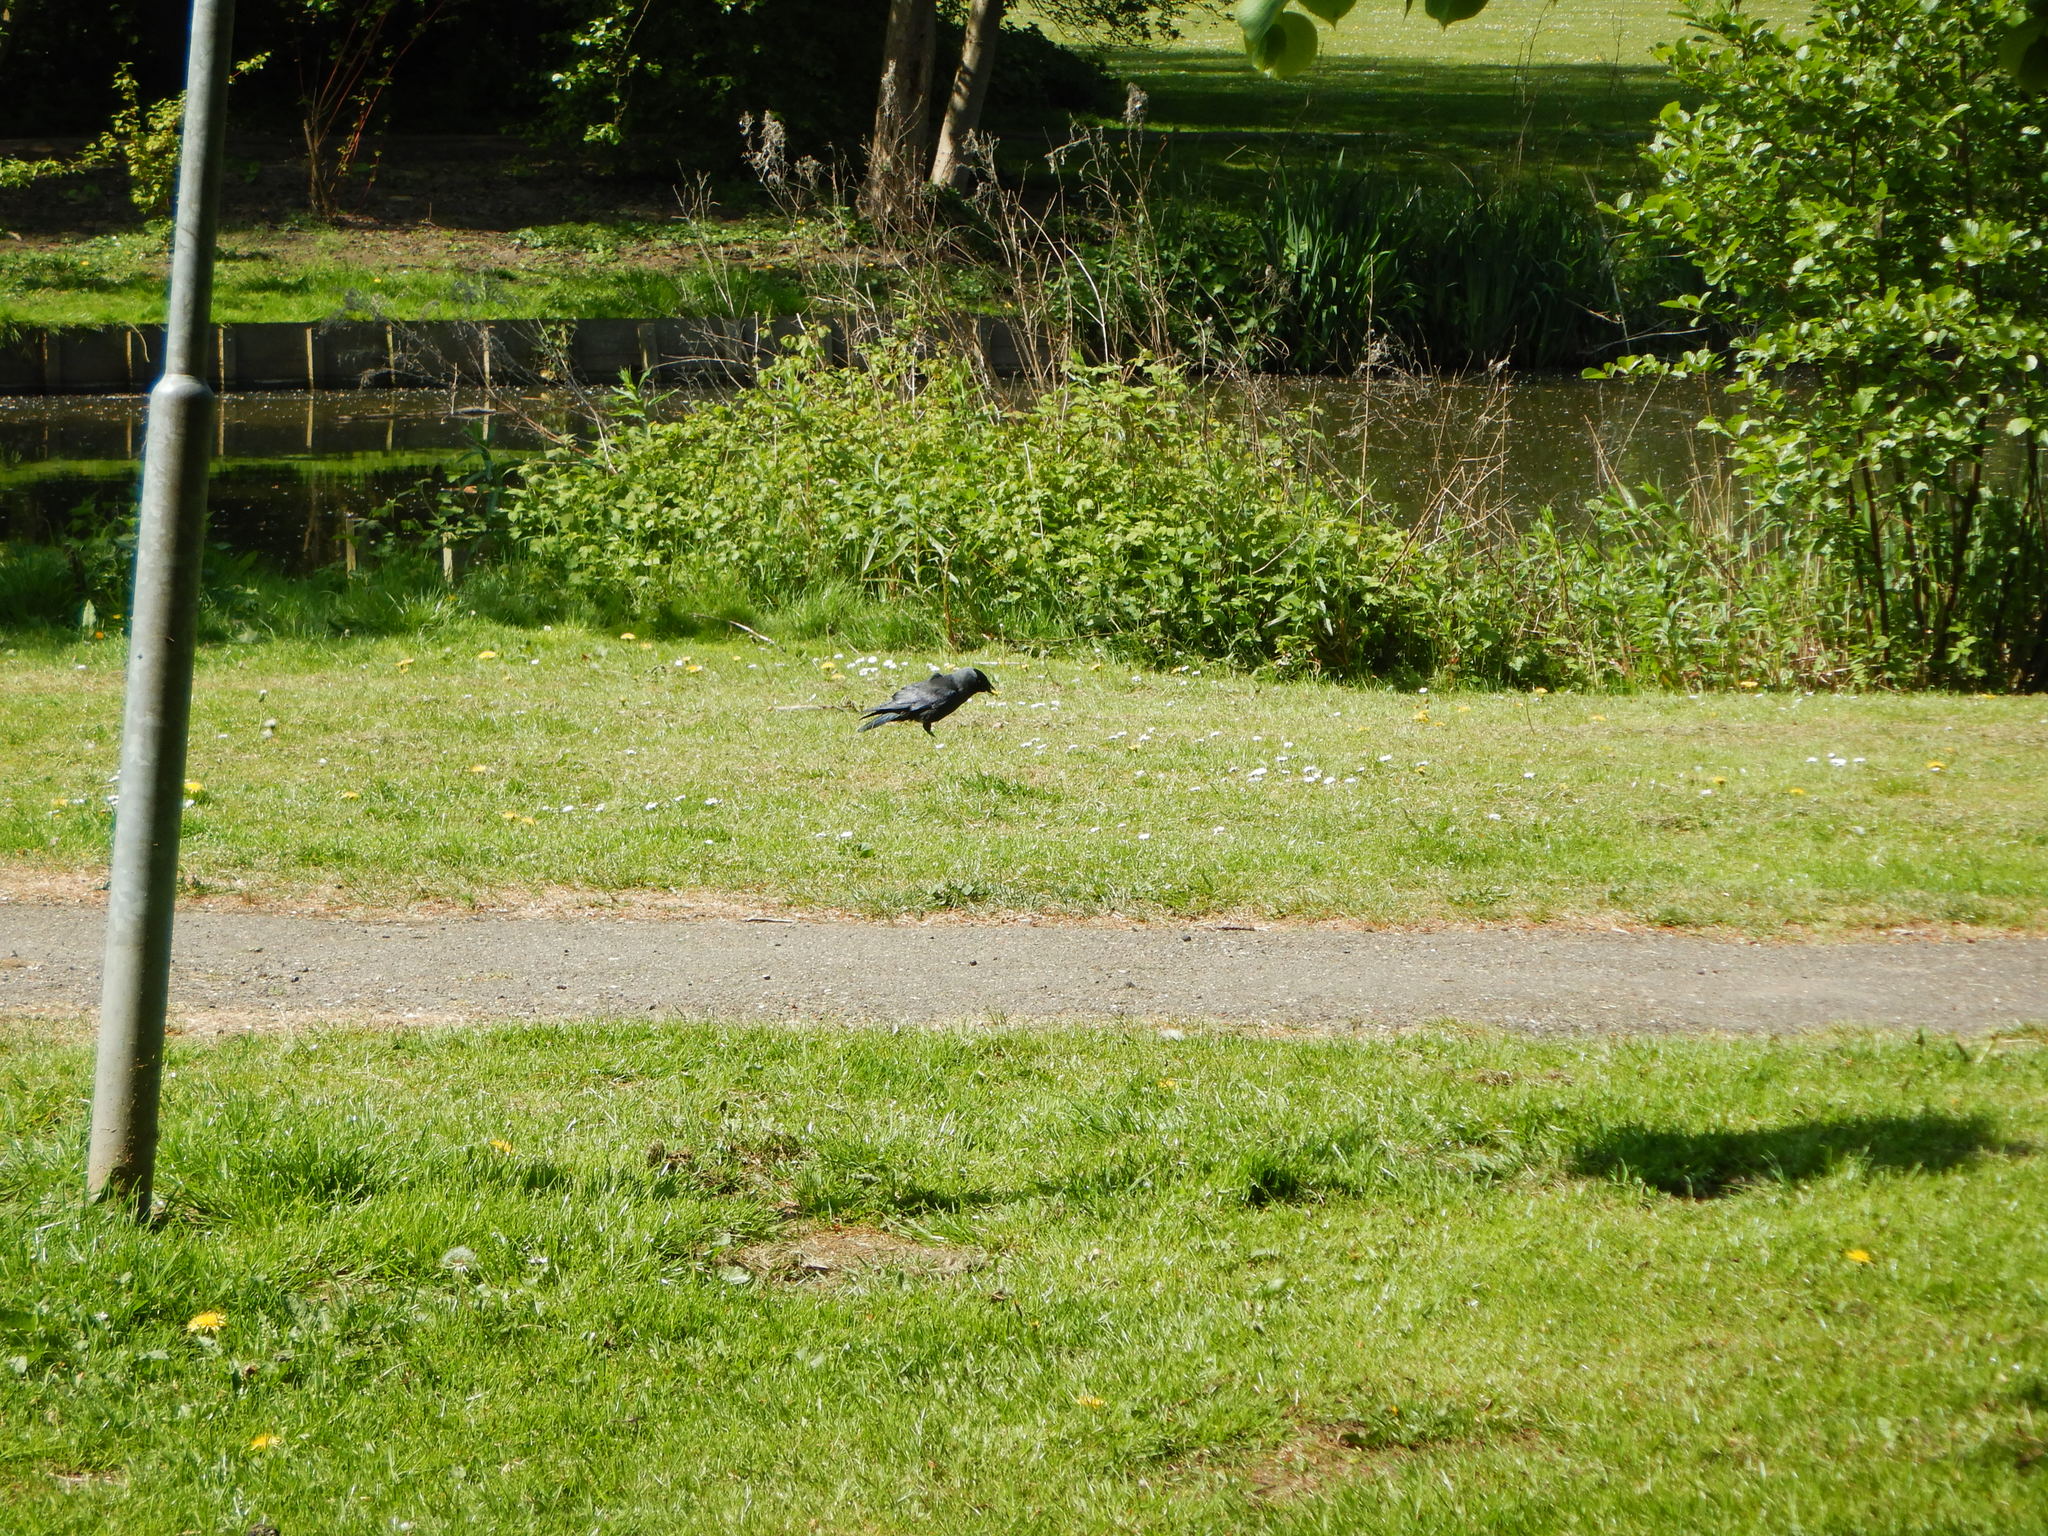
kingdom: Animalia
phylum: Chordata
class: Aves
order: Passeriformes
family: Corvidae
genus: Coloeus
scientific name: Coloeus monedula
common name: Western jackdaw
